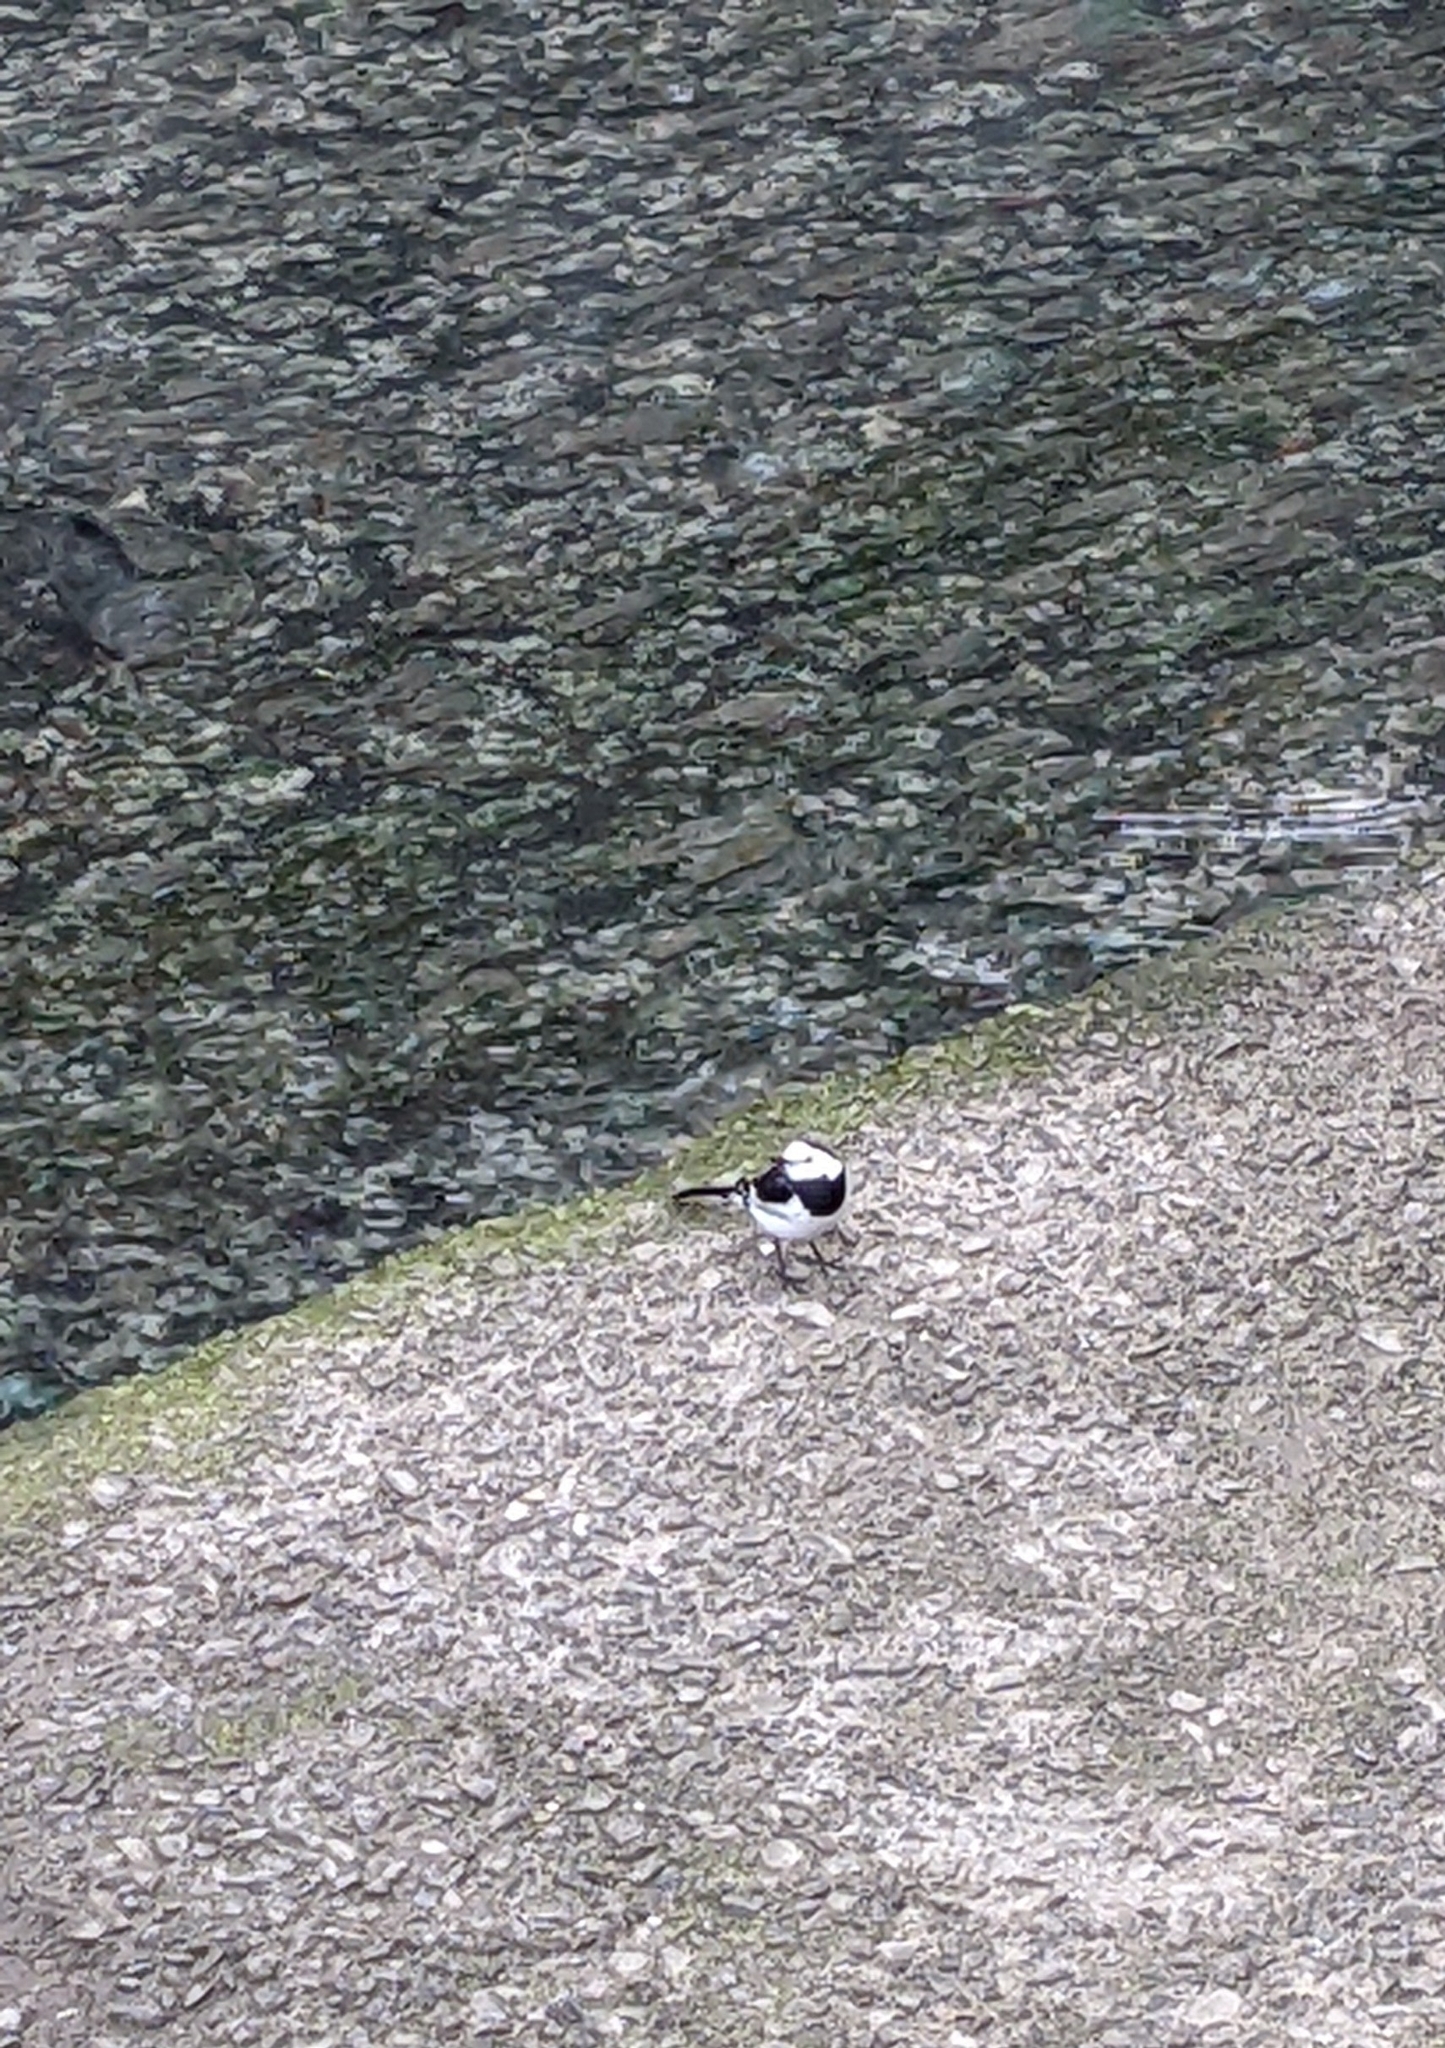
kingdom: Animalia
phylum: Chordata
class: Aves
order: Passeriformes
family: Motacillidae
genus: Motacilla
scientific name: Motacilla alba
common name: White wagtail
